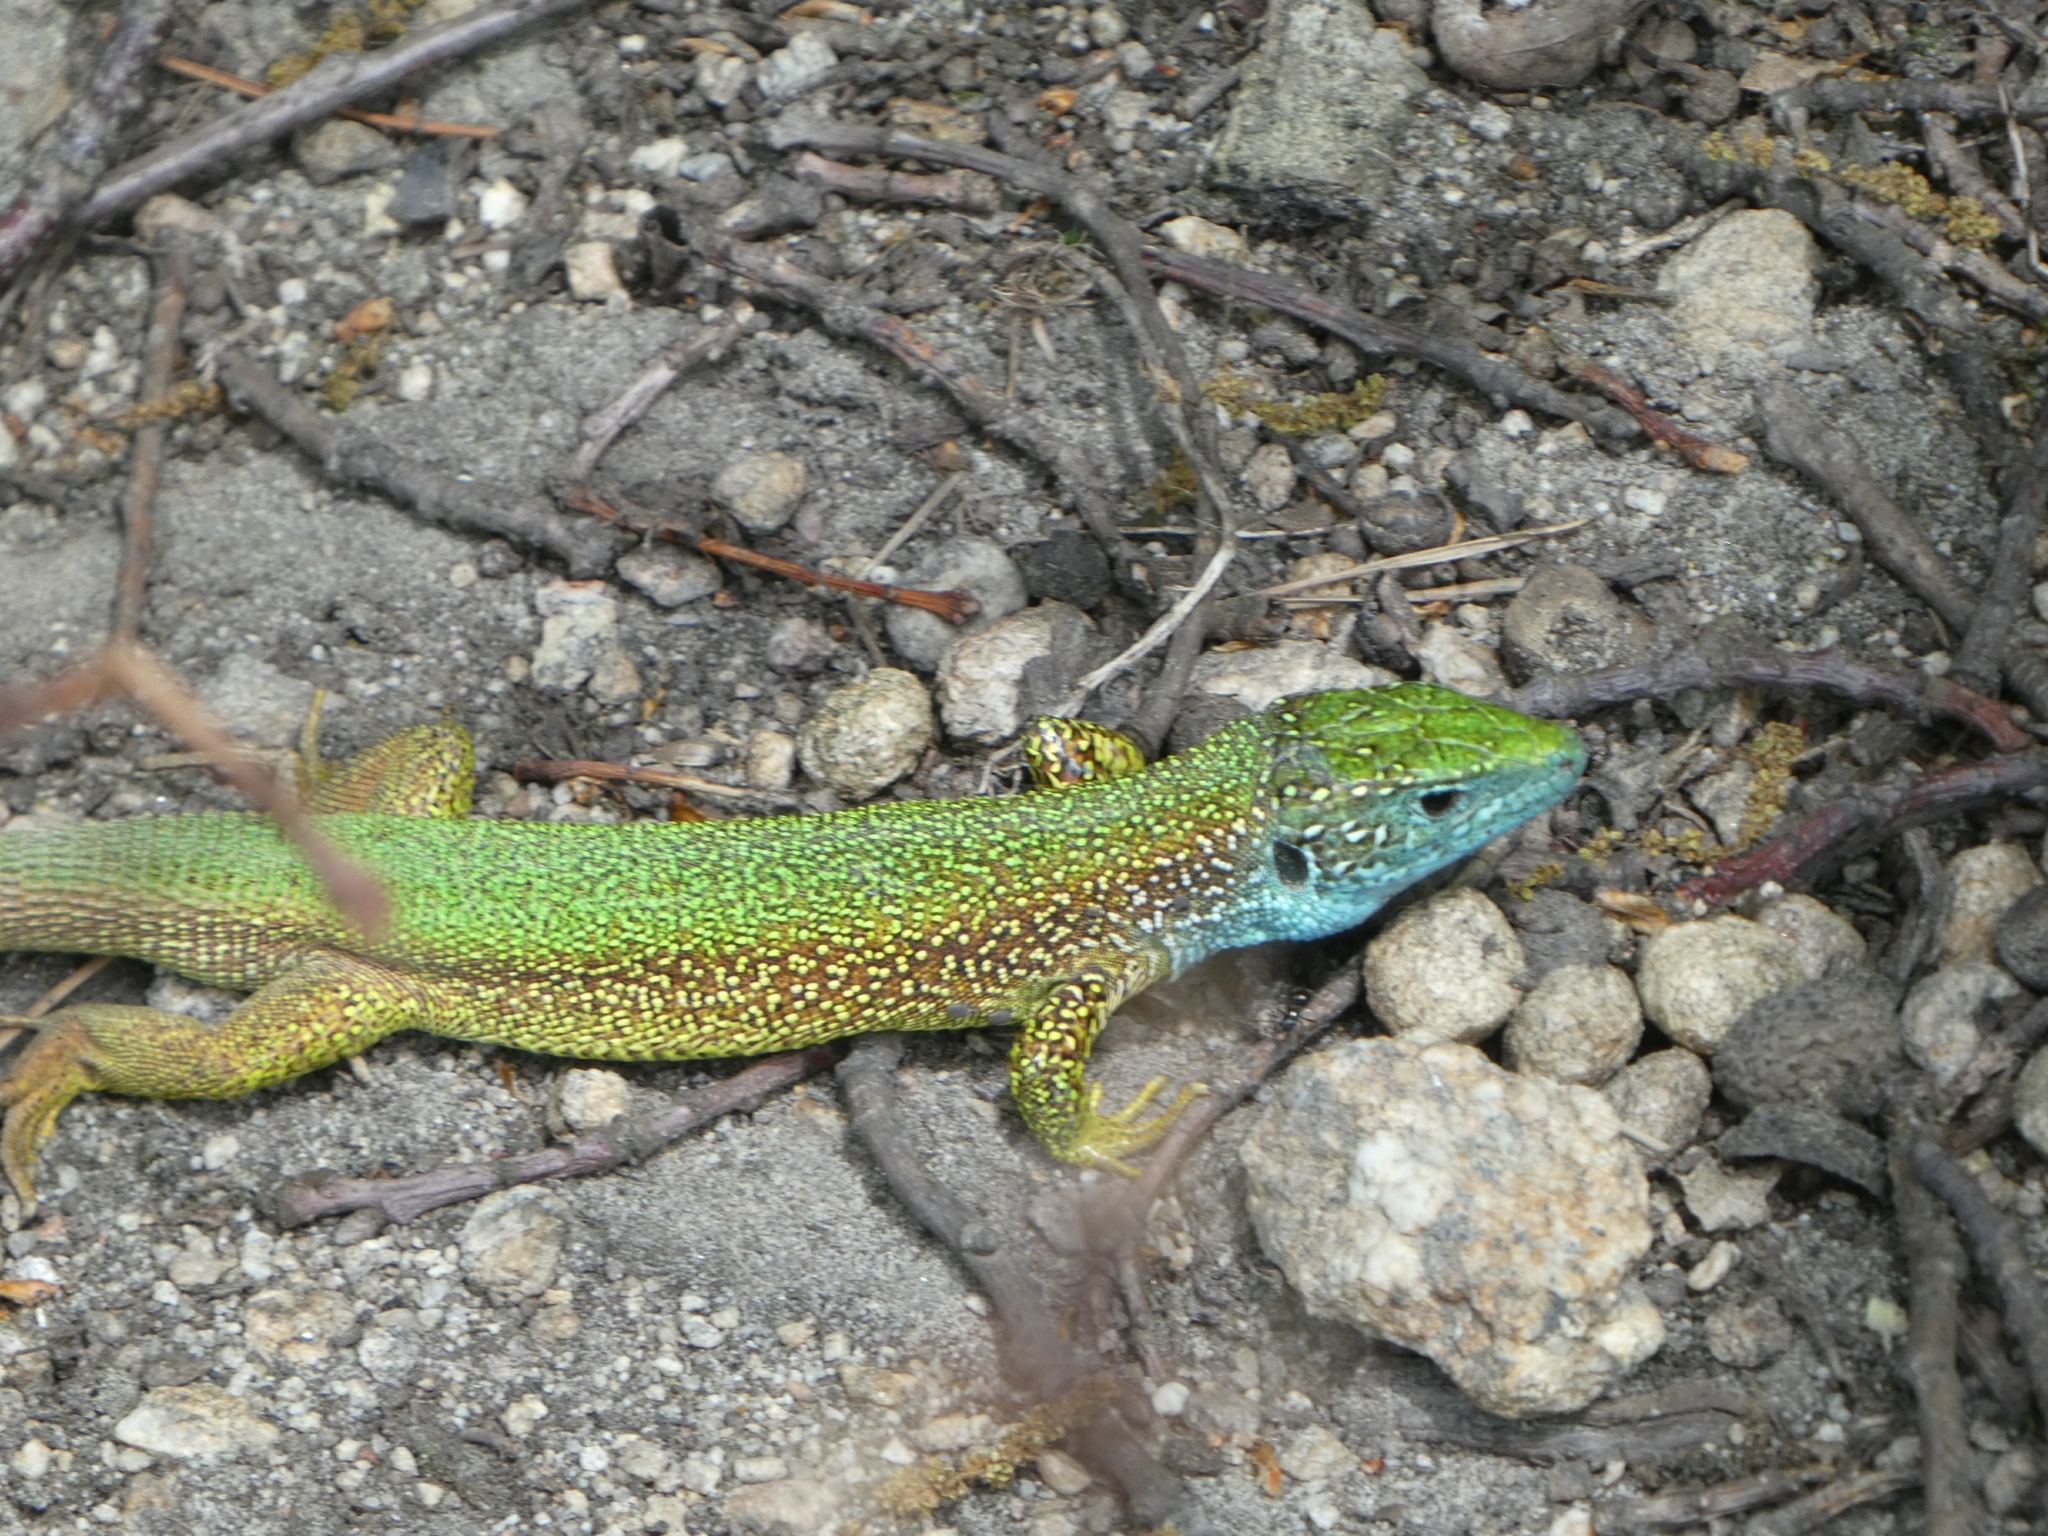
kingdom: Animalia
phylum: Chordata
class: Squamata
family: Lacertidae
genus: Lacerta
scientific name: Lacerta viridis
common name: European green lizard
